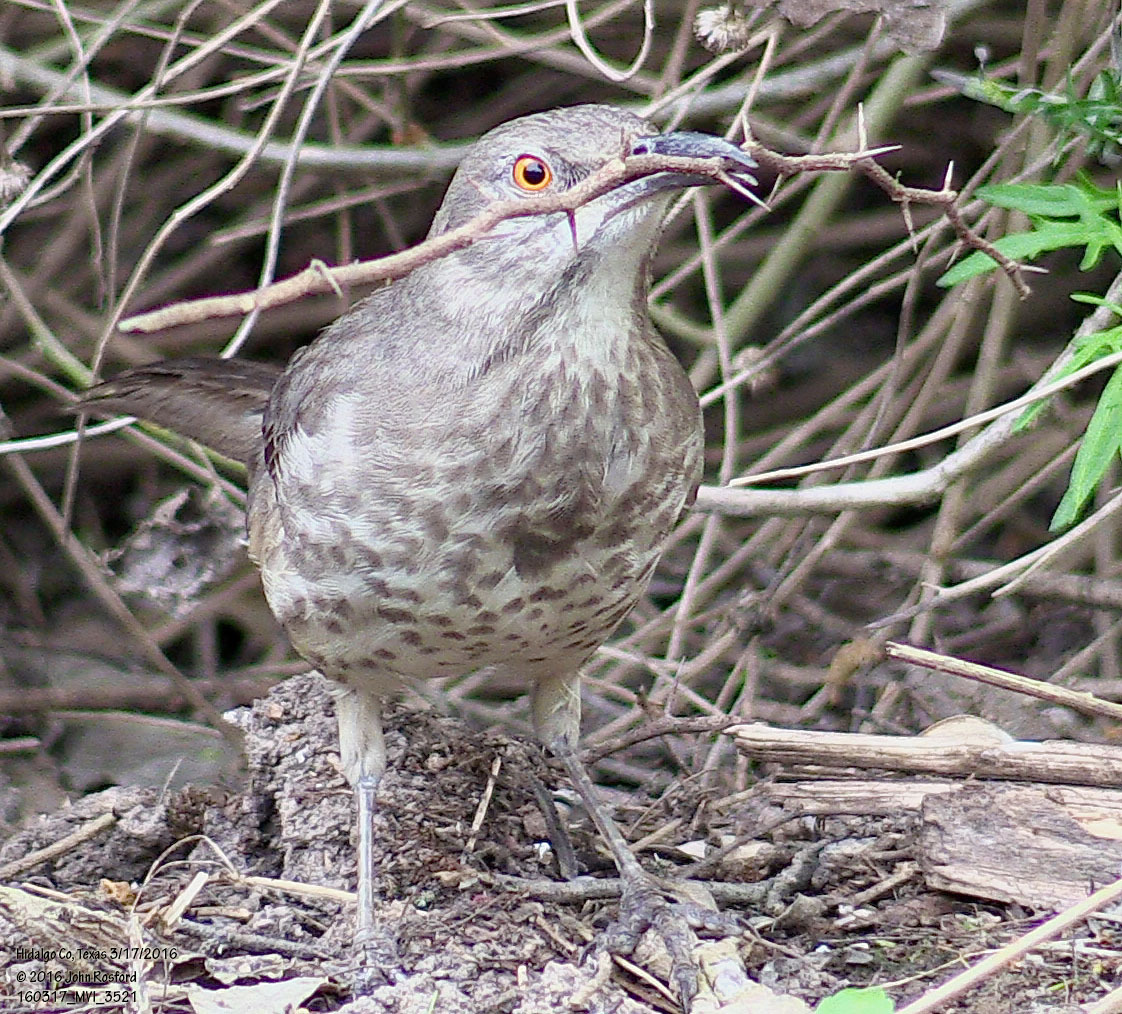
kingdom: Animalia
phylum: Chordata
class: Aves
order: Passeriformes
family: Mimidae
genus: Toxostoma
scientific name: Toxostoma curvirostre
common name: Curve-billed thrasher
